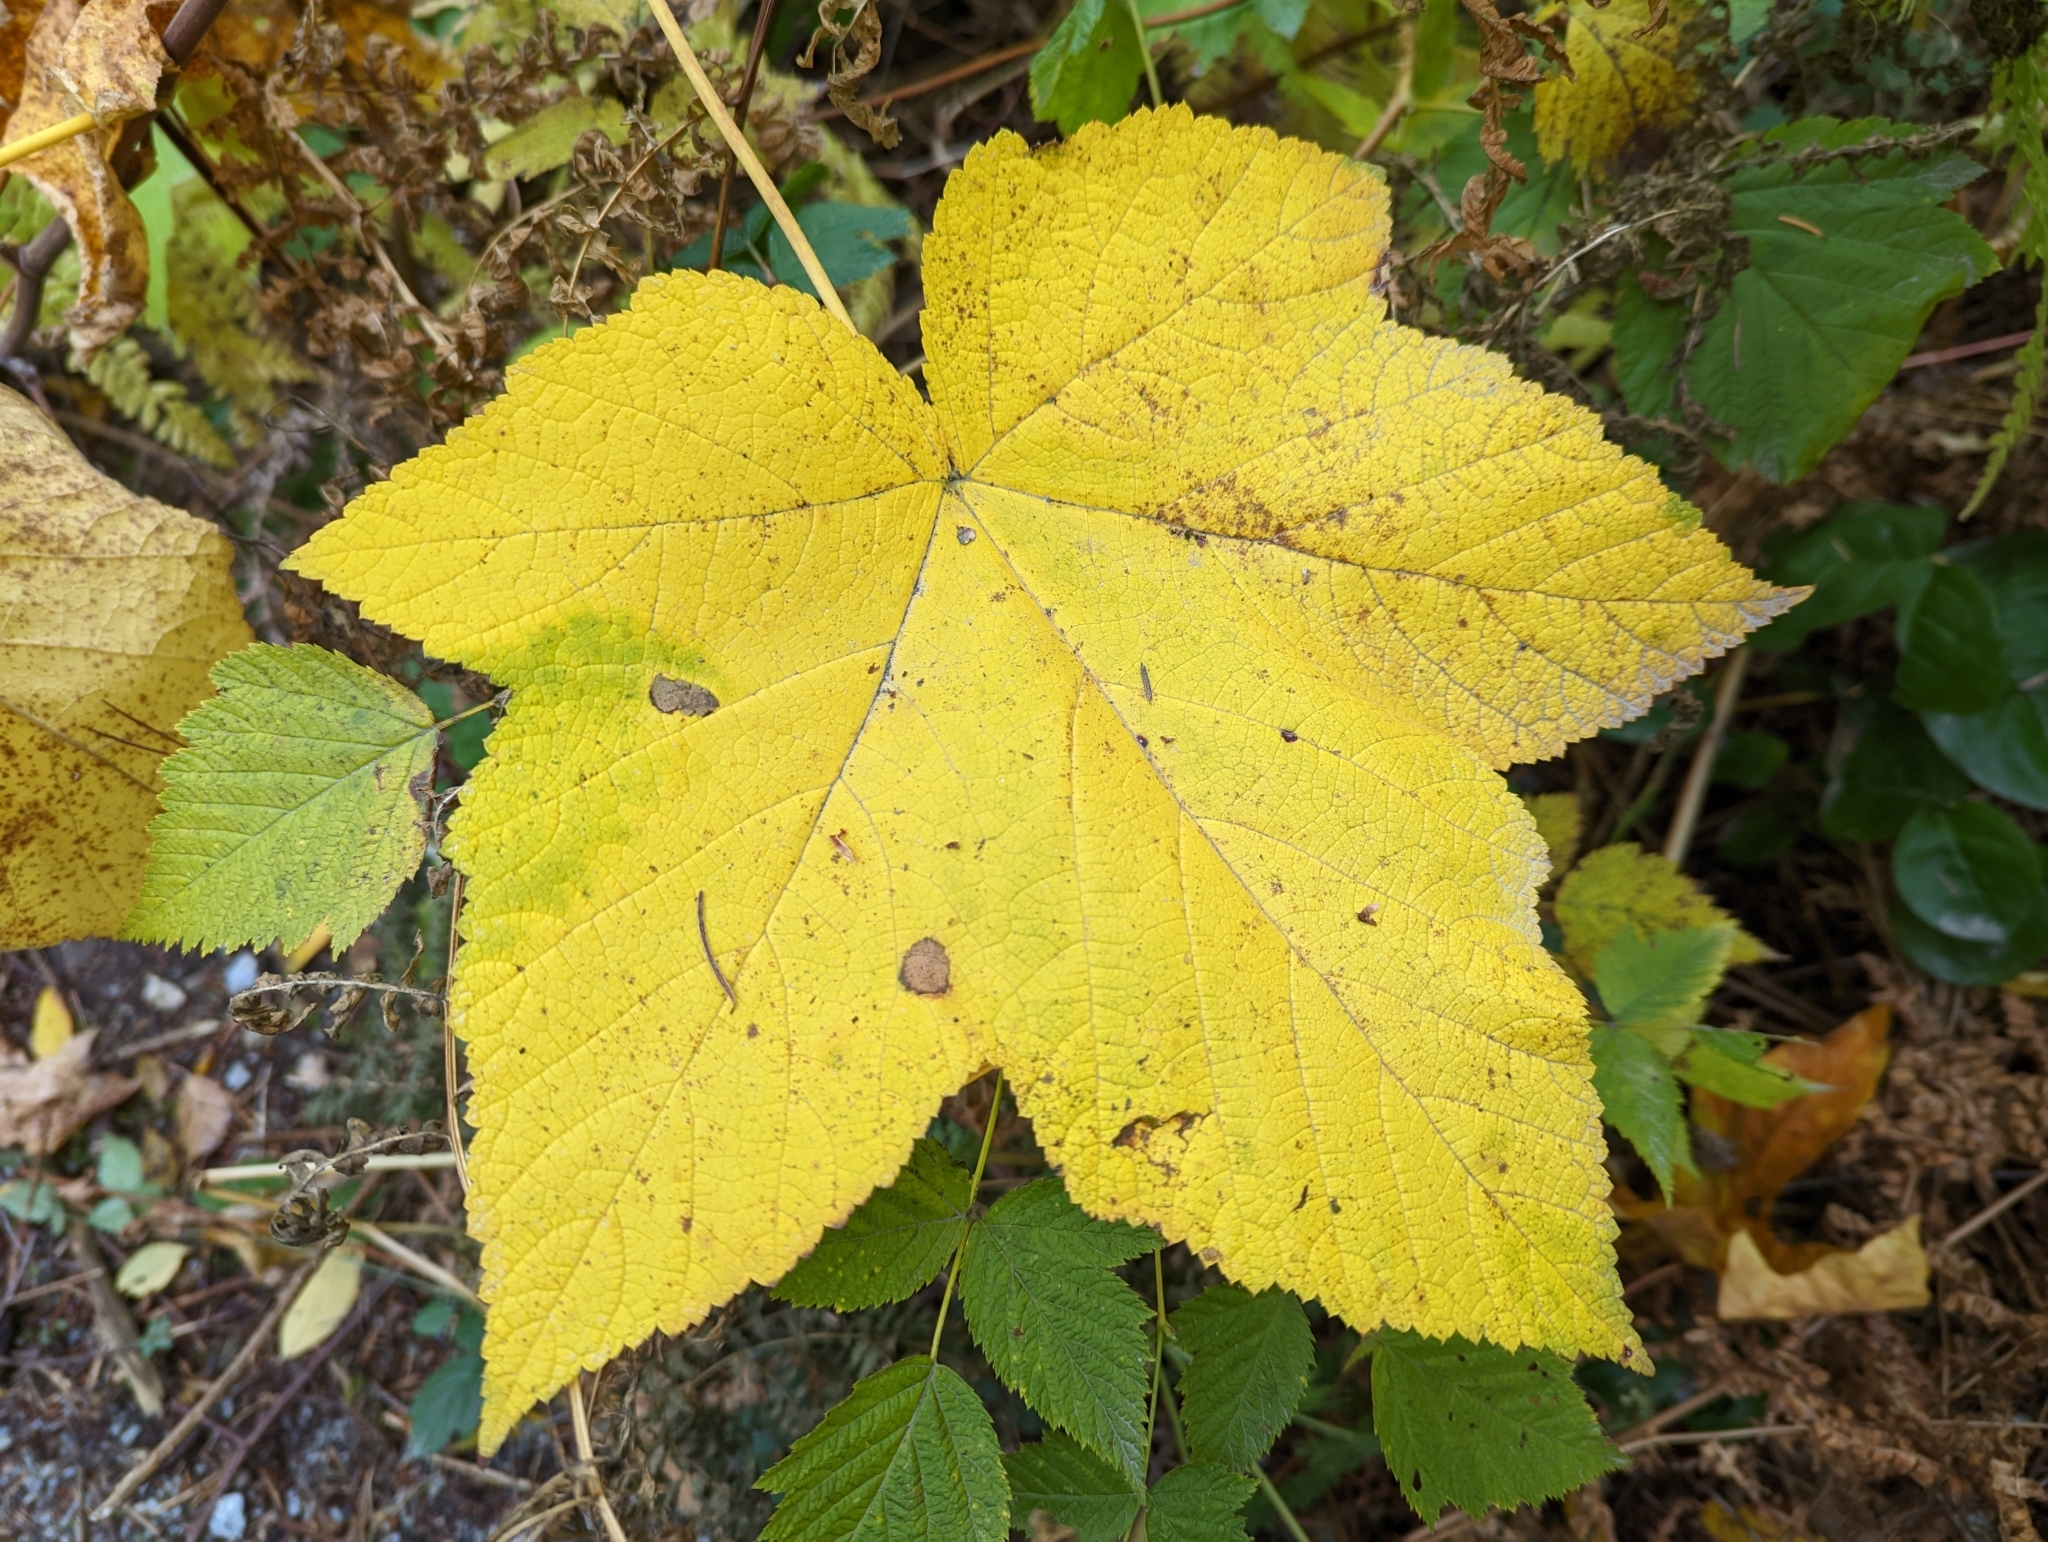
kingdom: Plantae
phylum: Tracheophyta
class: Magnoliopsida
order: Rosales
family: Rosaceae
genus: Rubus
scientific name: Rubus parviflorus
